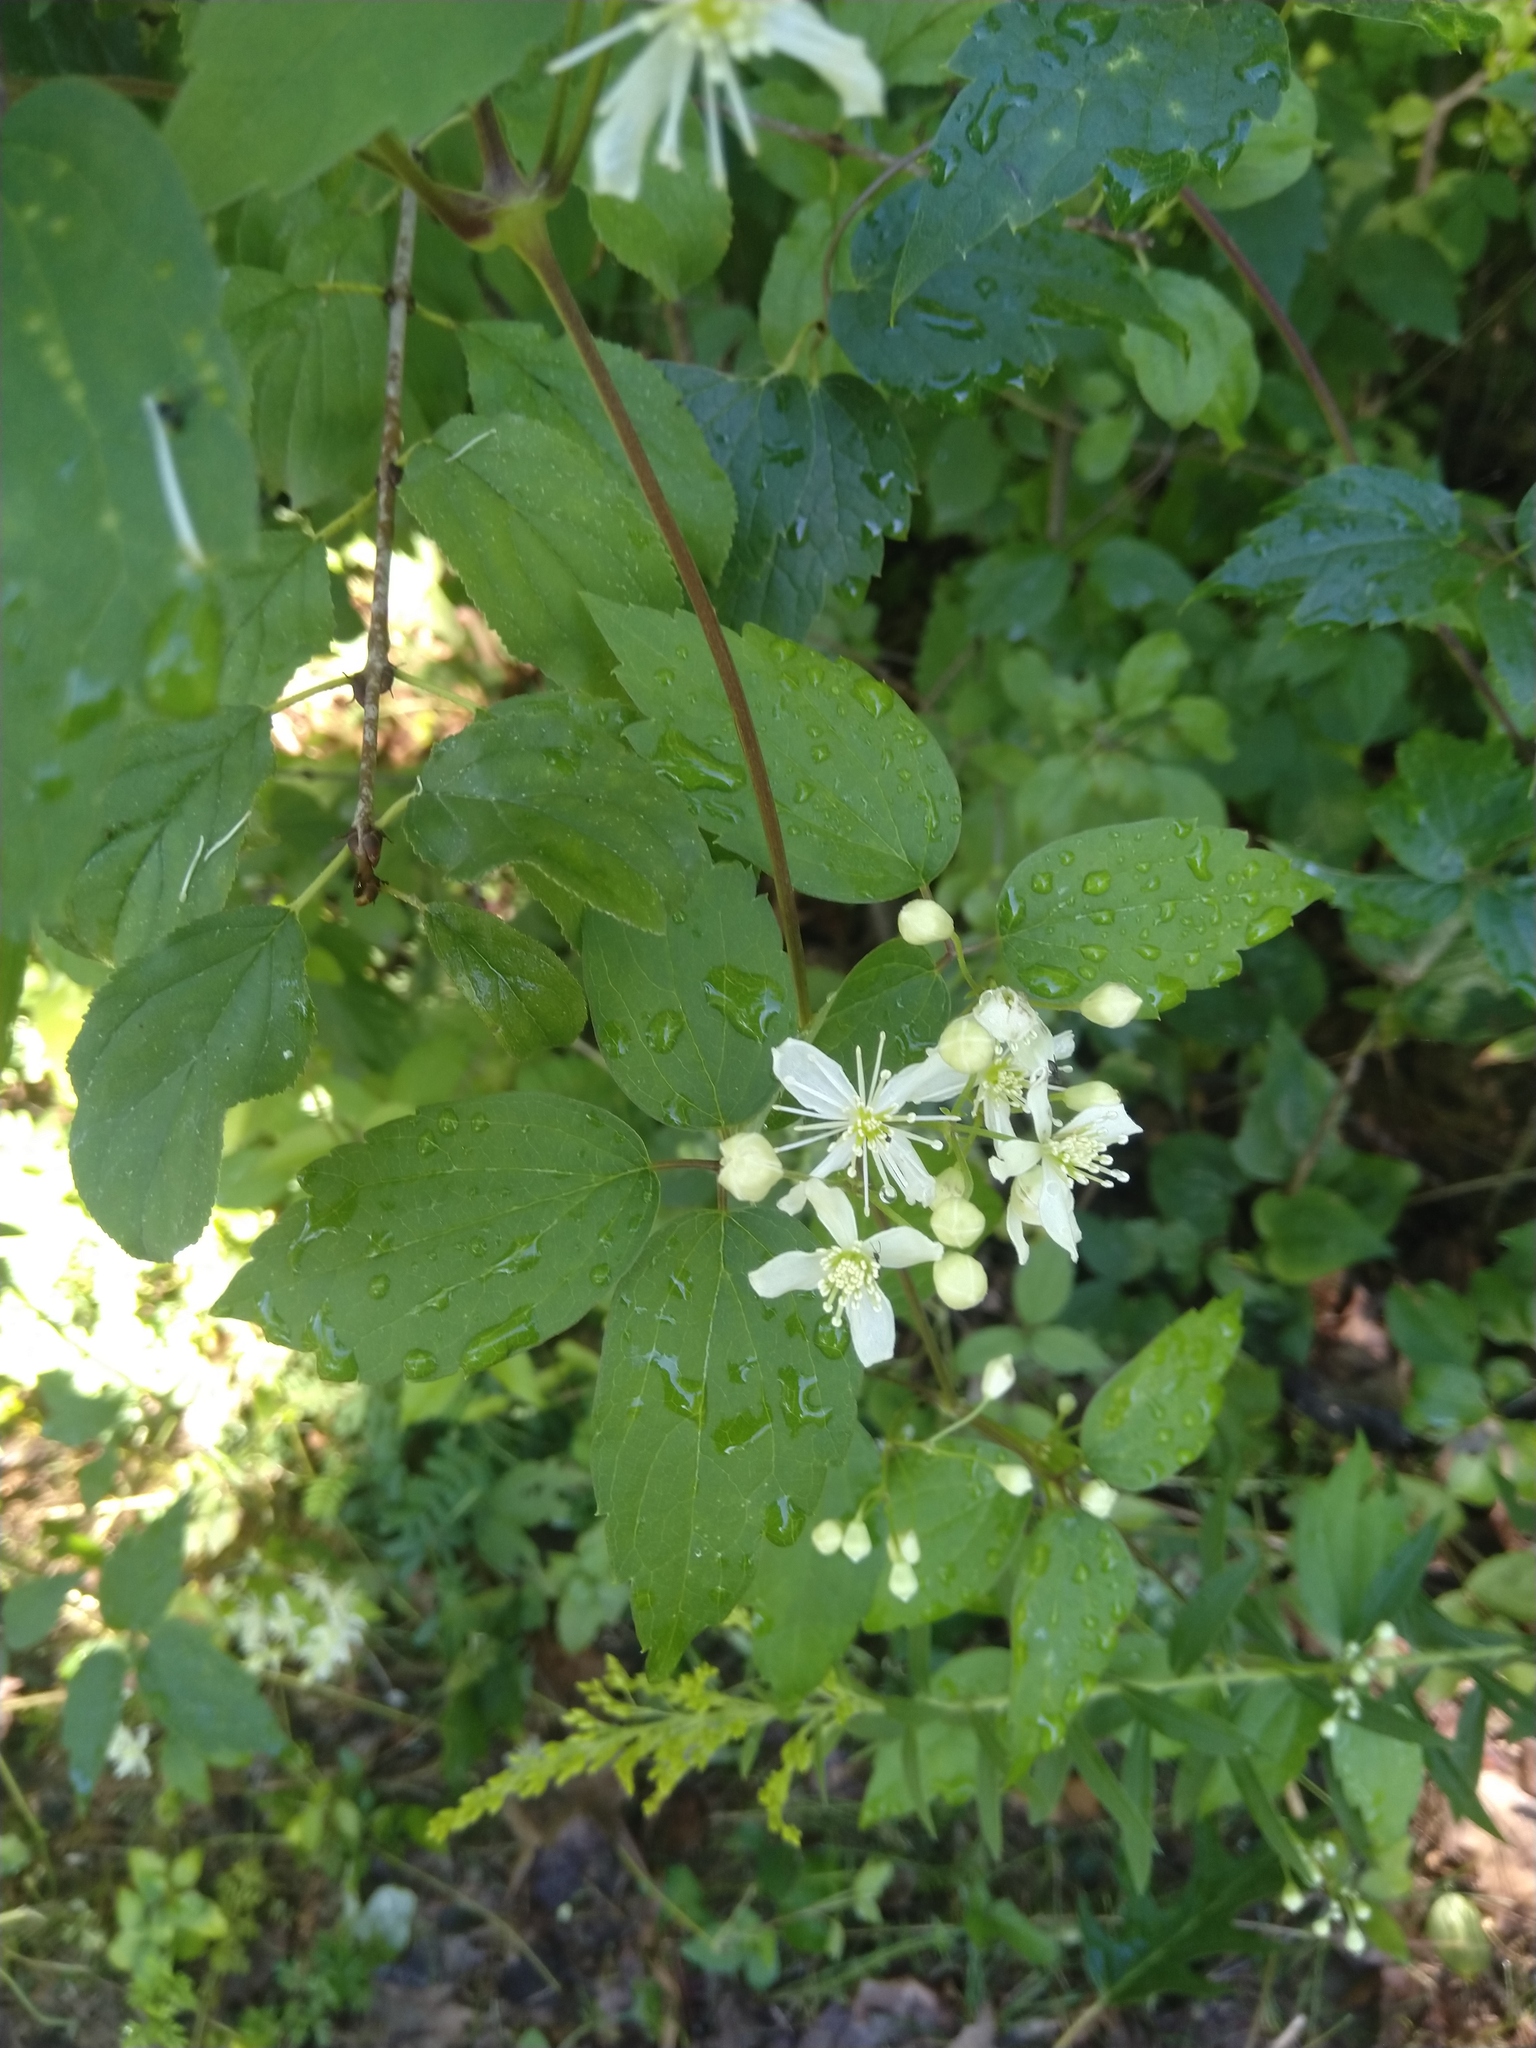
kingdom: Plantae
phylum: Tracheophyta
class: Magnoliopsida
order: Ranunculales
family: Ranunculaceae
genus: Clematis
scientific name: Clematis virginiana
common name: Virgin's-bower
